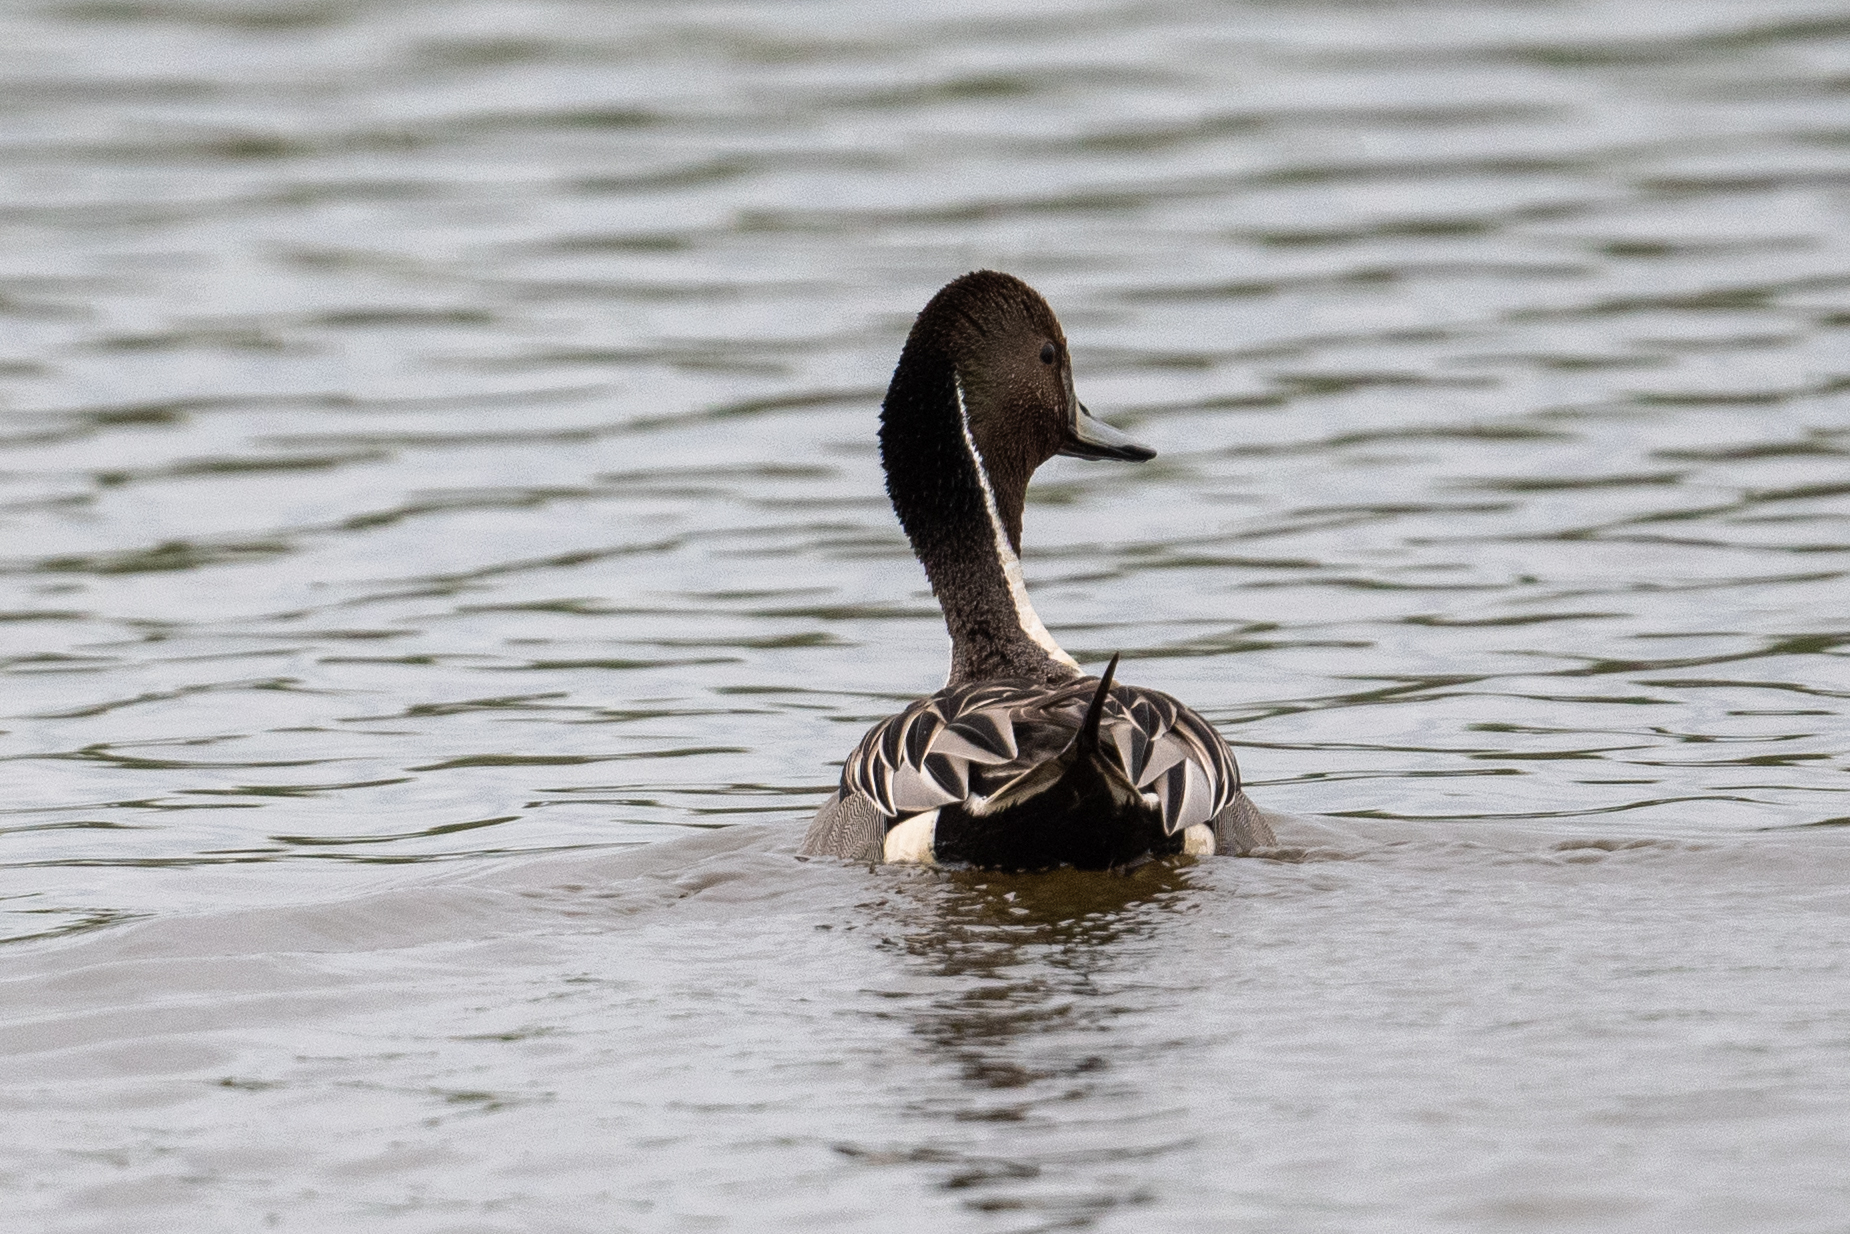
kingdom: Animalia
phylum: Chordata
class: Aves
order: Anseriformes
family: Anatidae
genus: Anas
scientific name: Anas acuta
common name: Northern pintail
